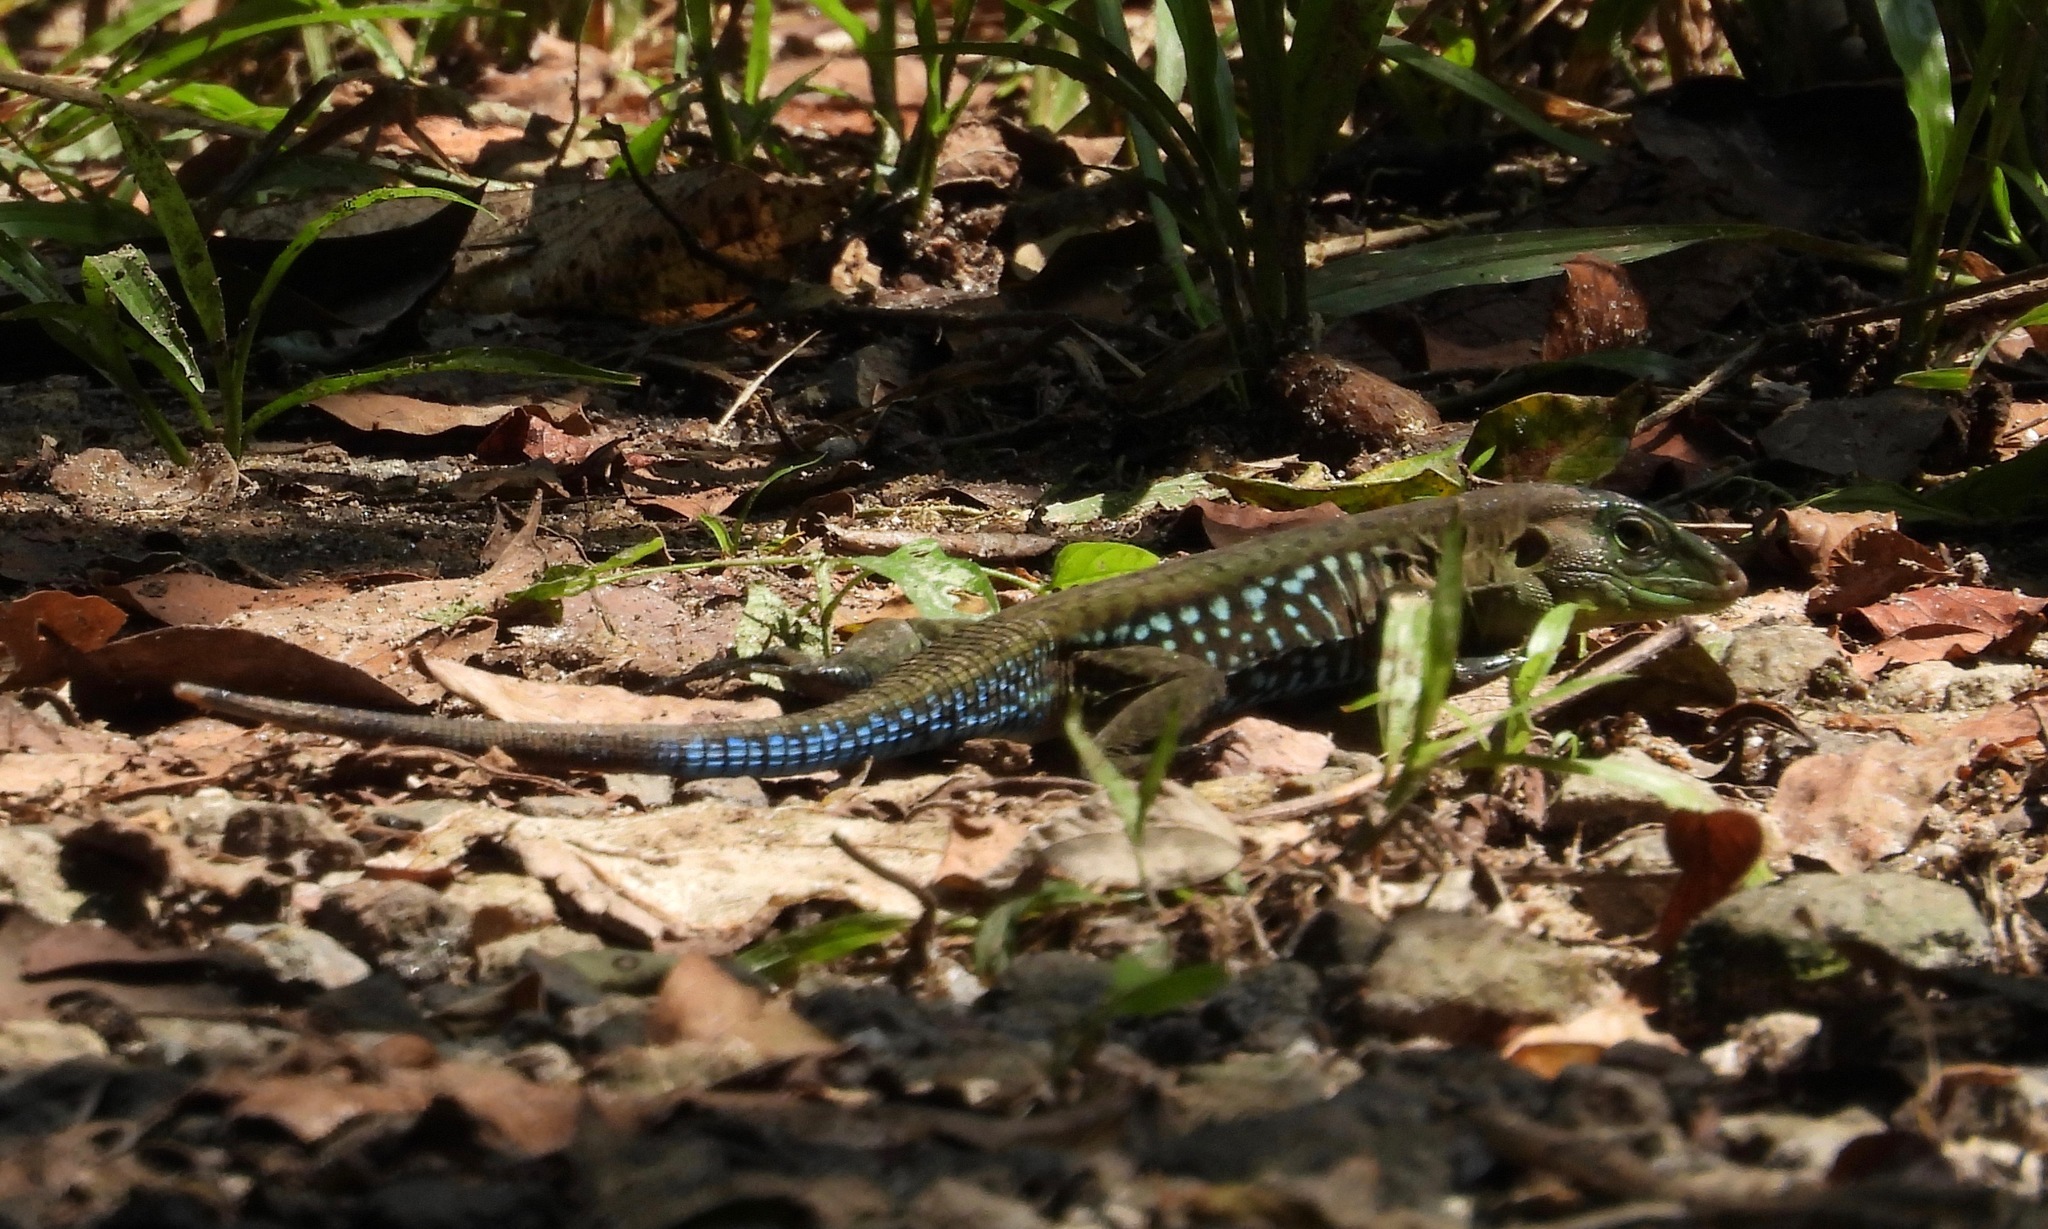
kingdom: Animalia
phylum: Chordata
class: Squamata
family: Teiidae
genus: Holcosus
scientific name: Holcosus parvus
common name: Rainbow ameiva
